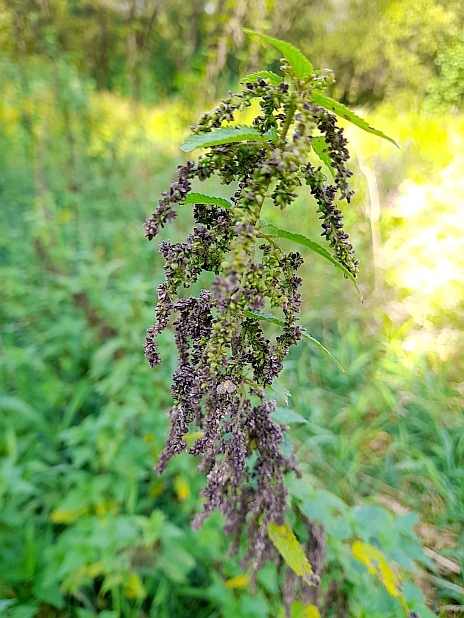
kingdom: Plantae
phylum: Tracheophyta
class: Magnoliopsida
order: Rosales
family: Urticaceae
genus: Urtica
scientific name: Urtica dioica
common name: Common nettle
